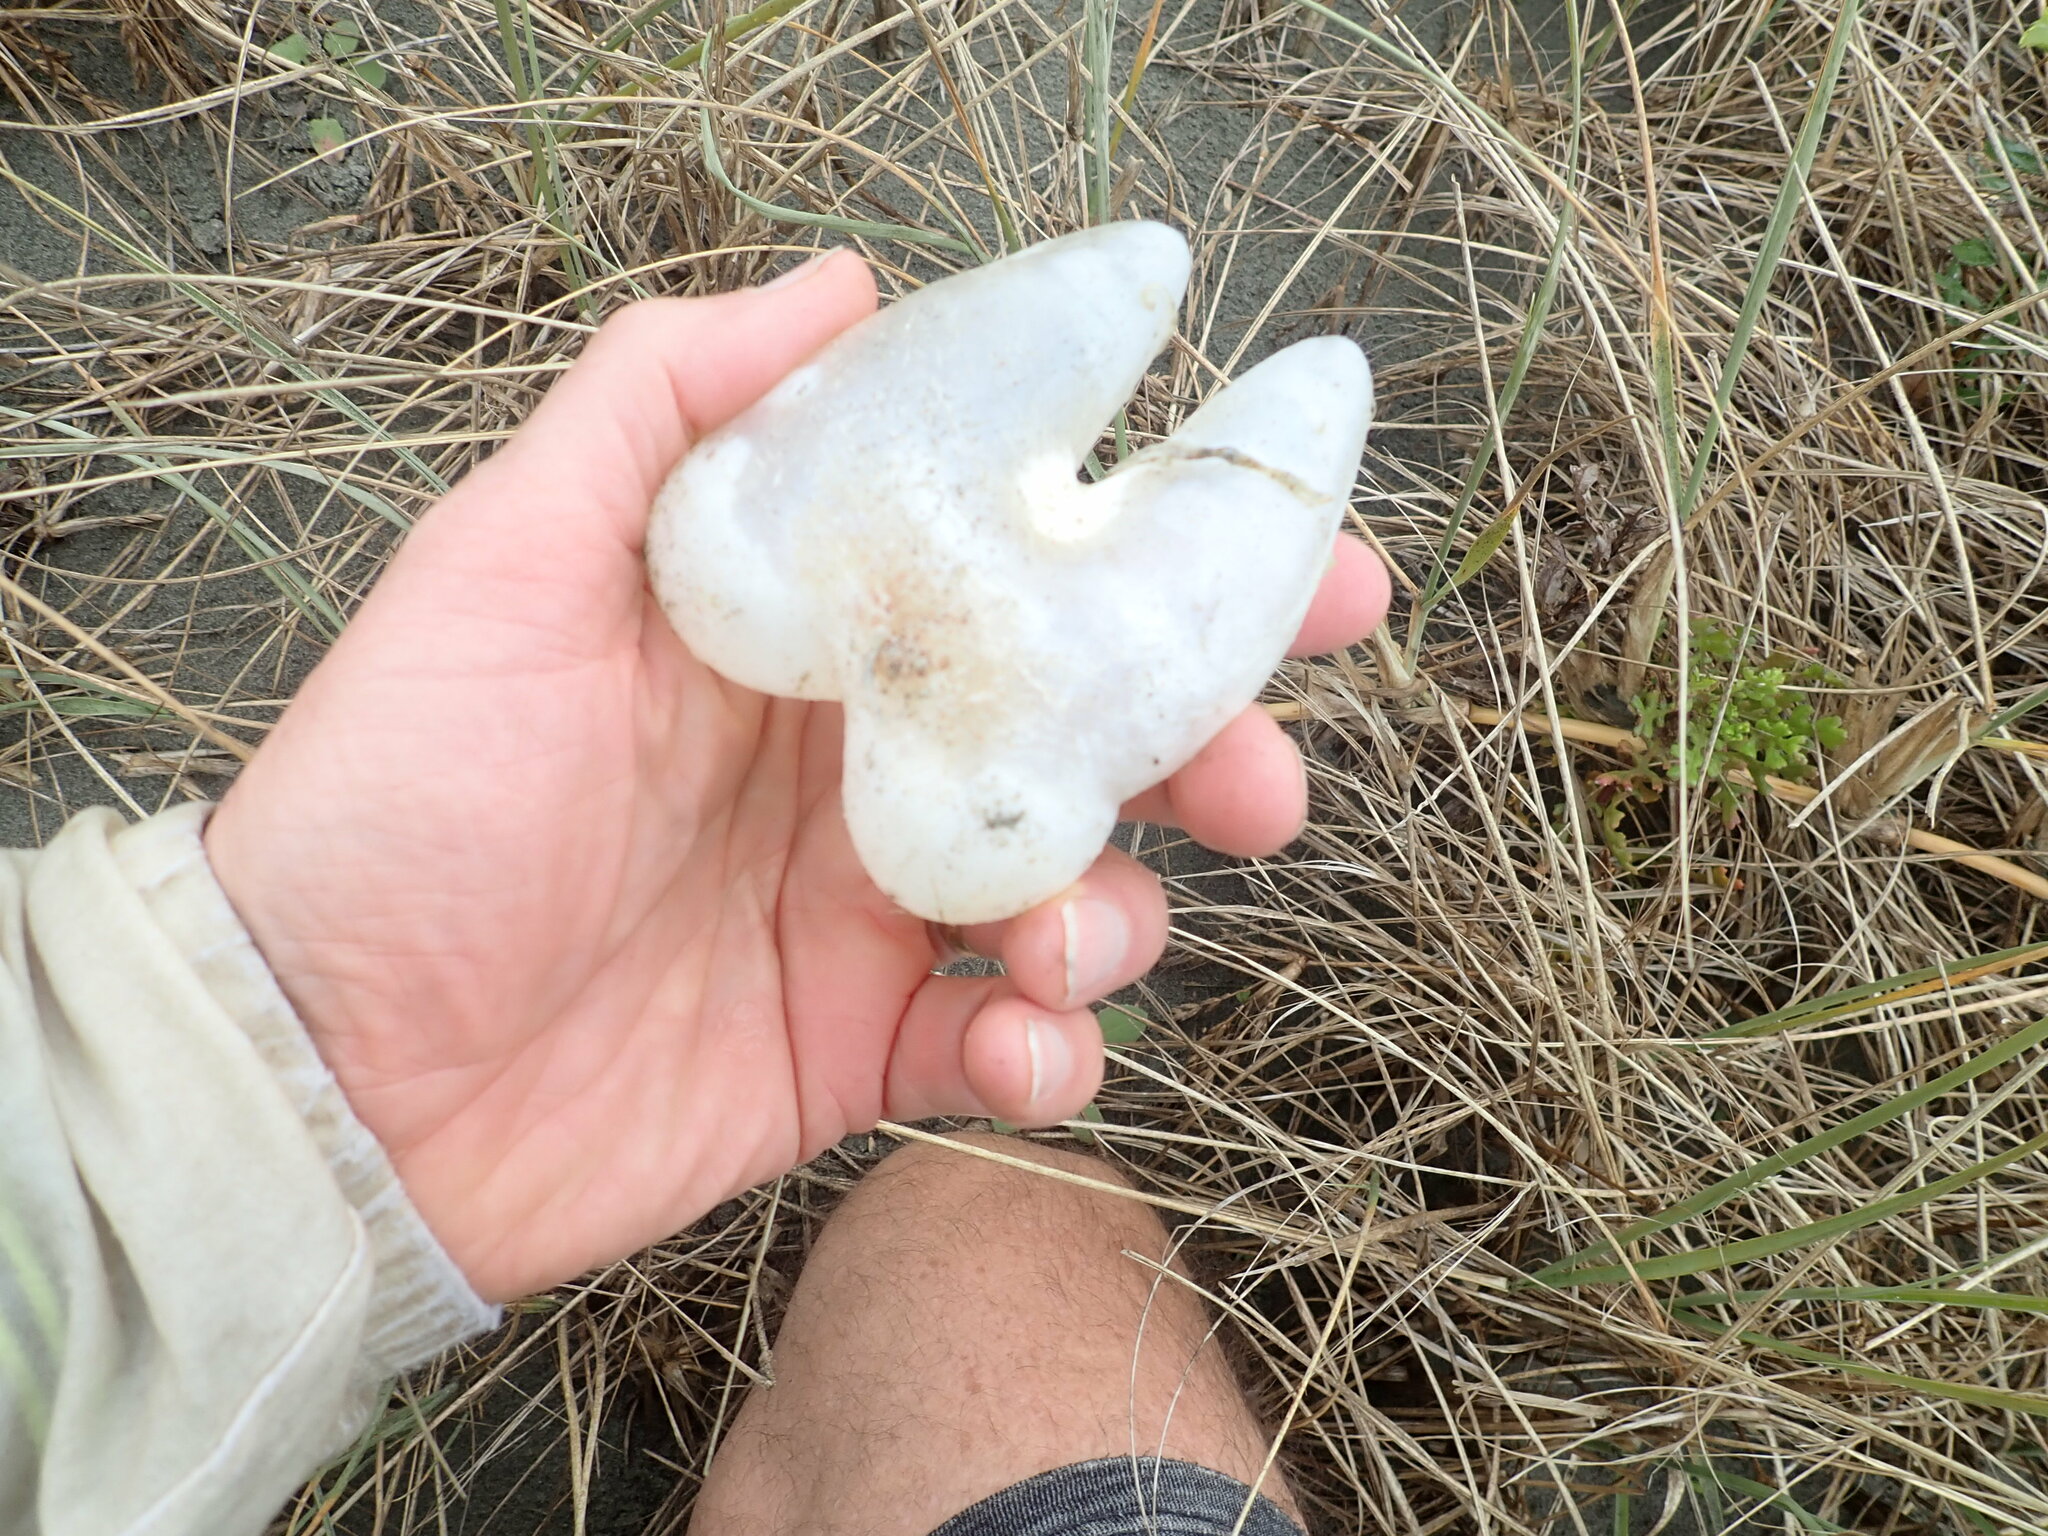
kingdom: Animalia
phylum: Chordata
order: Tetraodontiformes
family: Diodontidae
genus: Allomycterus
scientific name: Allomycterus pilatus
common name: No common name
